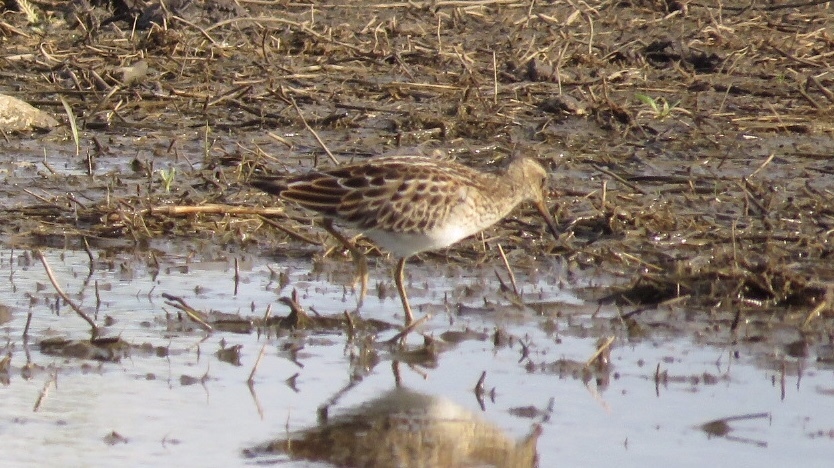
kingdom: Animalia
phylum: Chordata
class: Aves
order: Charadriiformes
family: Scolopacidae
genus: Calidris
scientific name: Calidris melanotos
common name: Pectoral sandpiper
